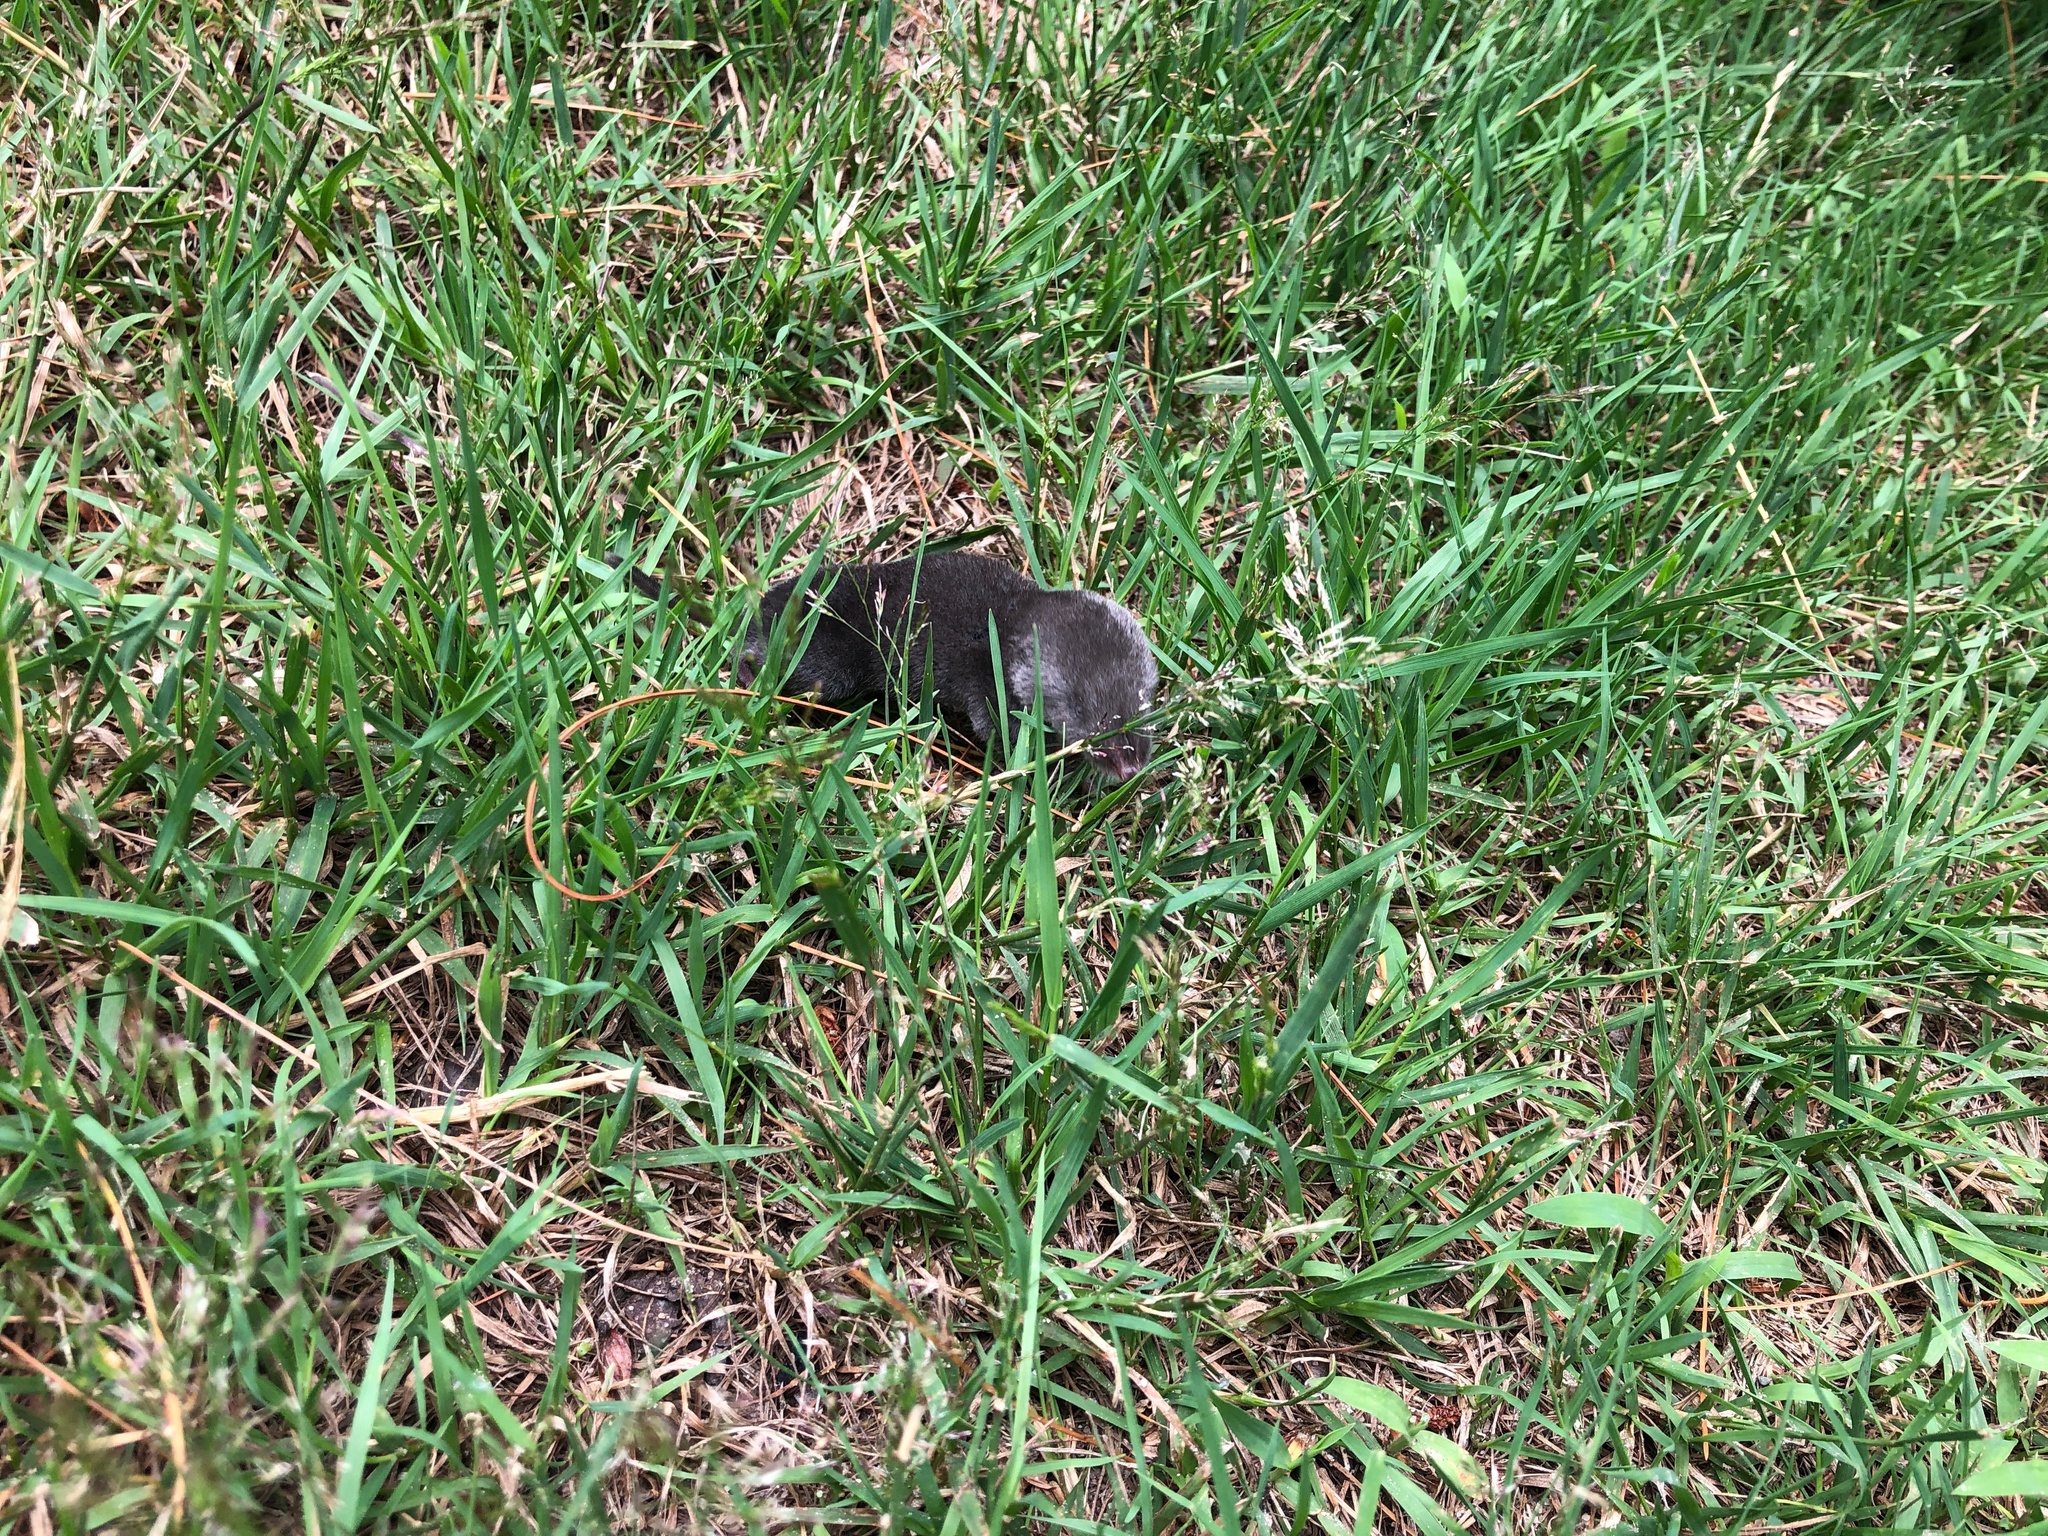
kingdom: Animalia
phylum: Chordata
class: Mammalia
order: Soricomorpha
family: Soricidae
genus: Blarina
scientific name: Blarina brevicauda
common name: Northern short-tailed shrew
